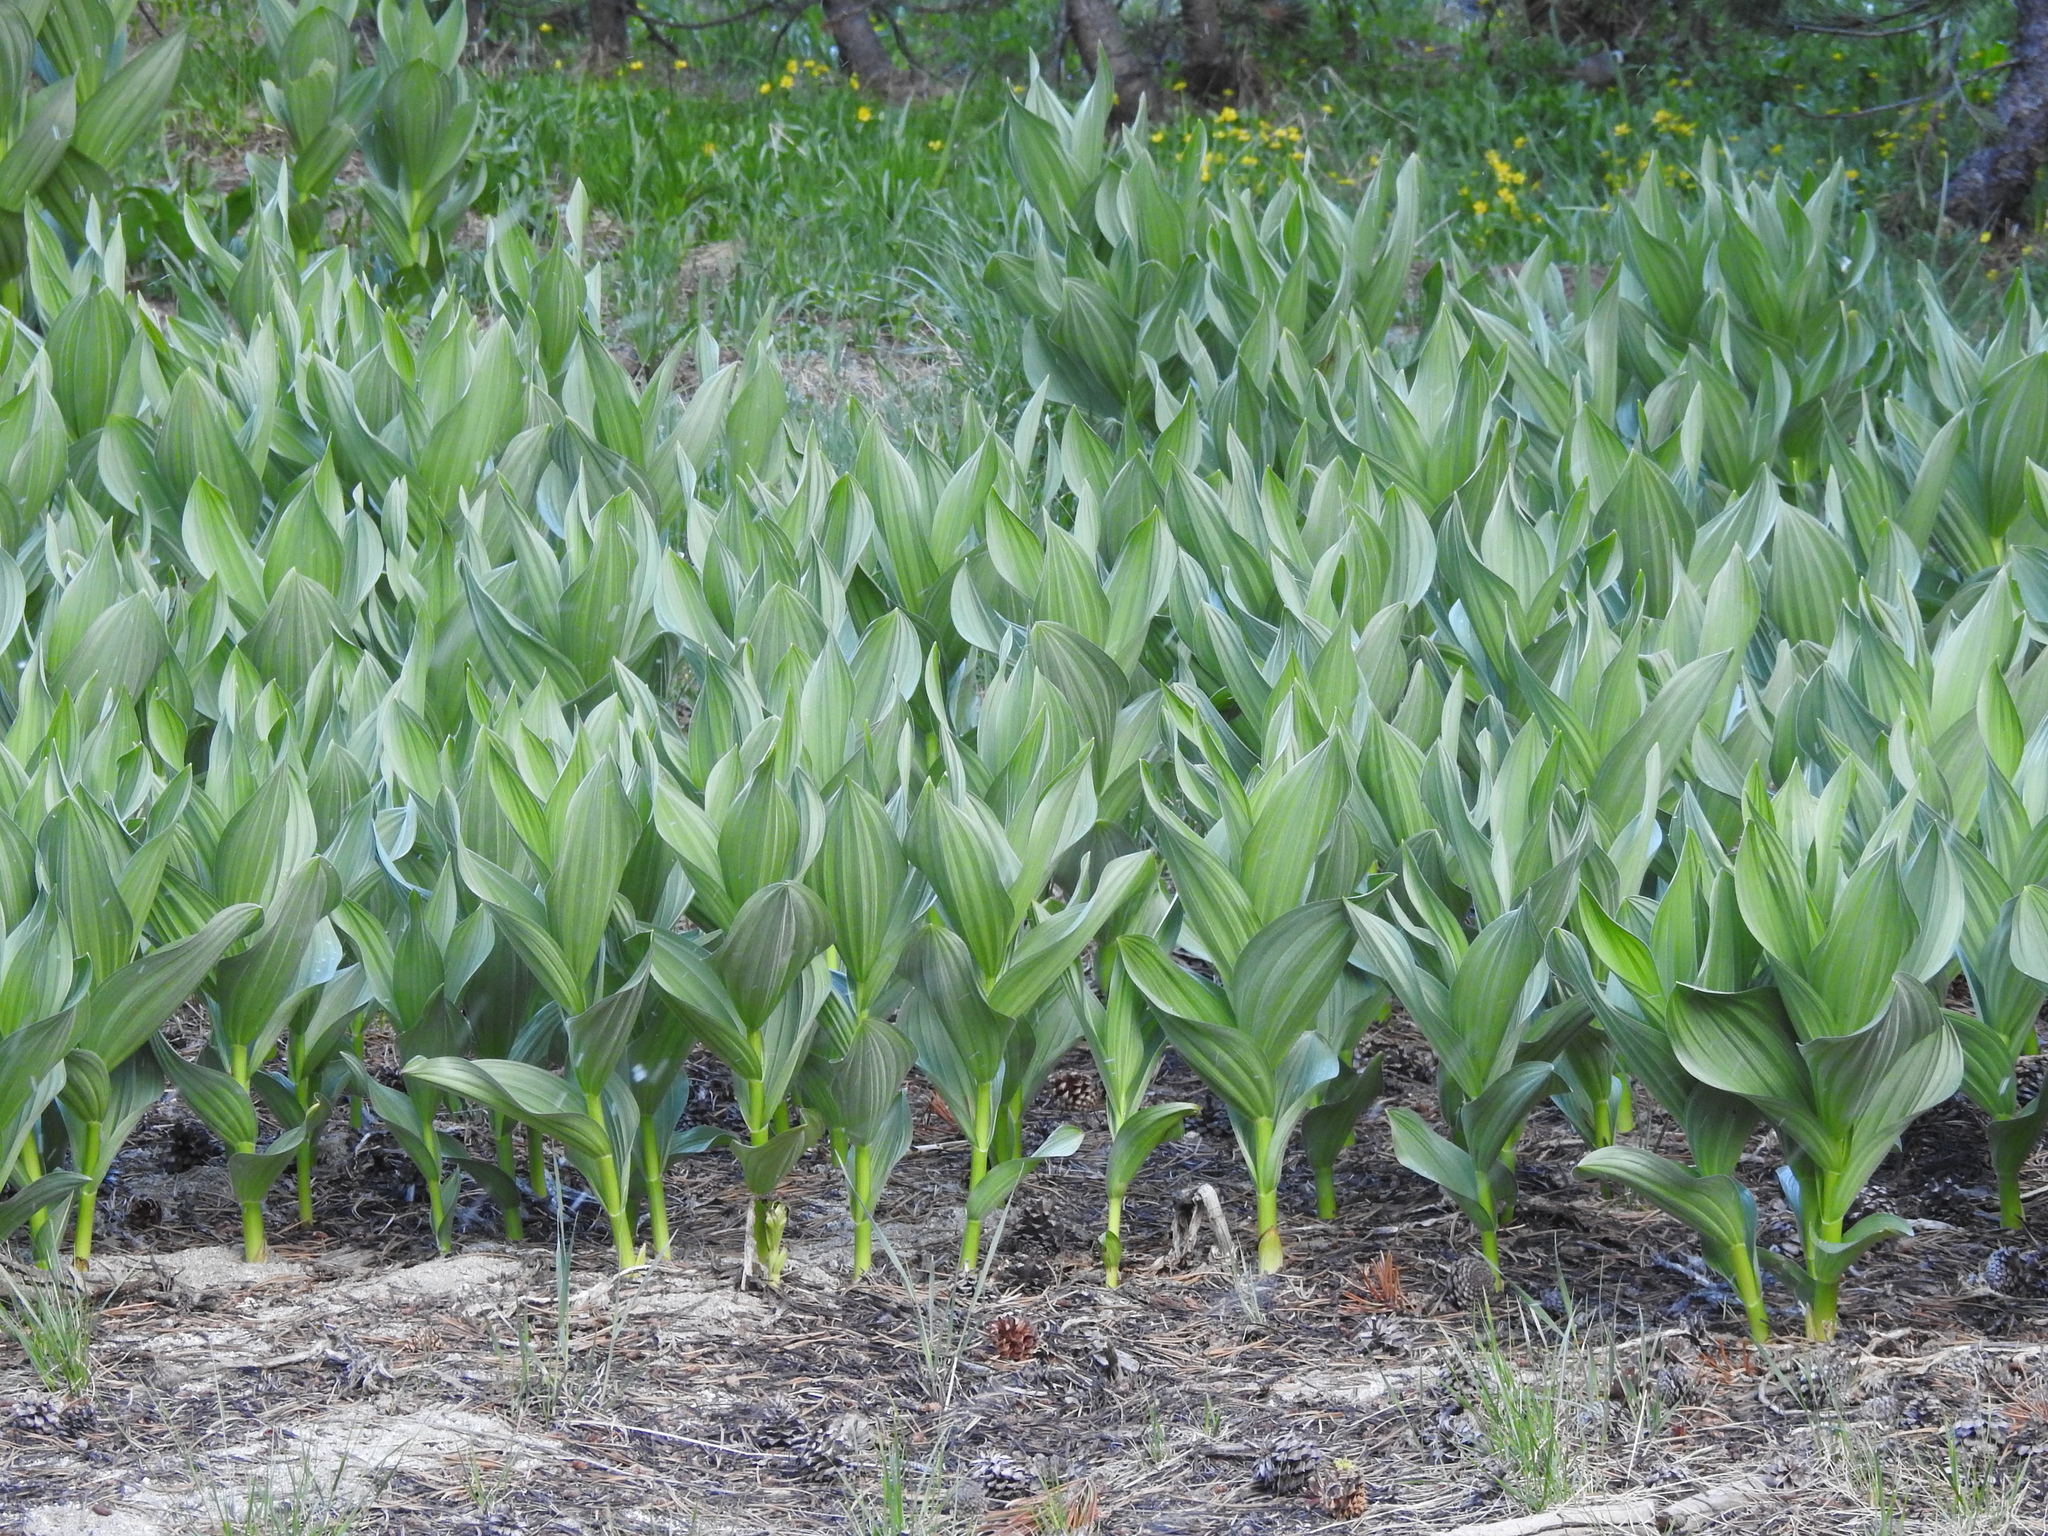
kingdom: Plantae
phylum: Tracheophyta
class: Liliopsida
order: Liliales
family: Melanthiaceae
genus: Veratrum
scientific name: Veratrum californicum
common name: California veratrum
